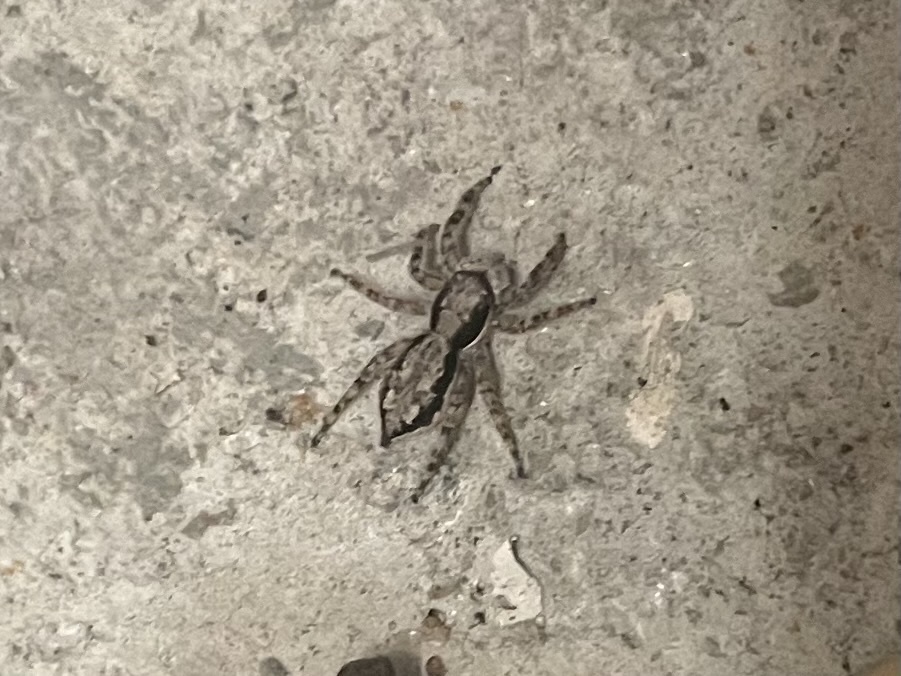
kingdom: Animalia
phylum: Arthropoda
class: Arachnida
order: Araneae
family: Salticidae
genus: Menemerus
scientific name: Menemerus bivittatus
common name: Gray wall jumper
